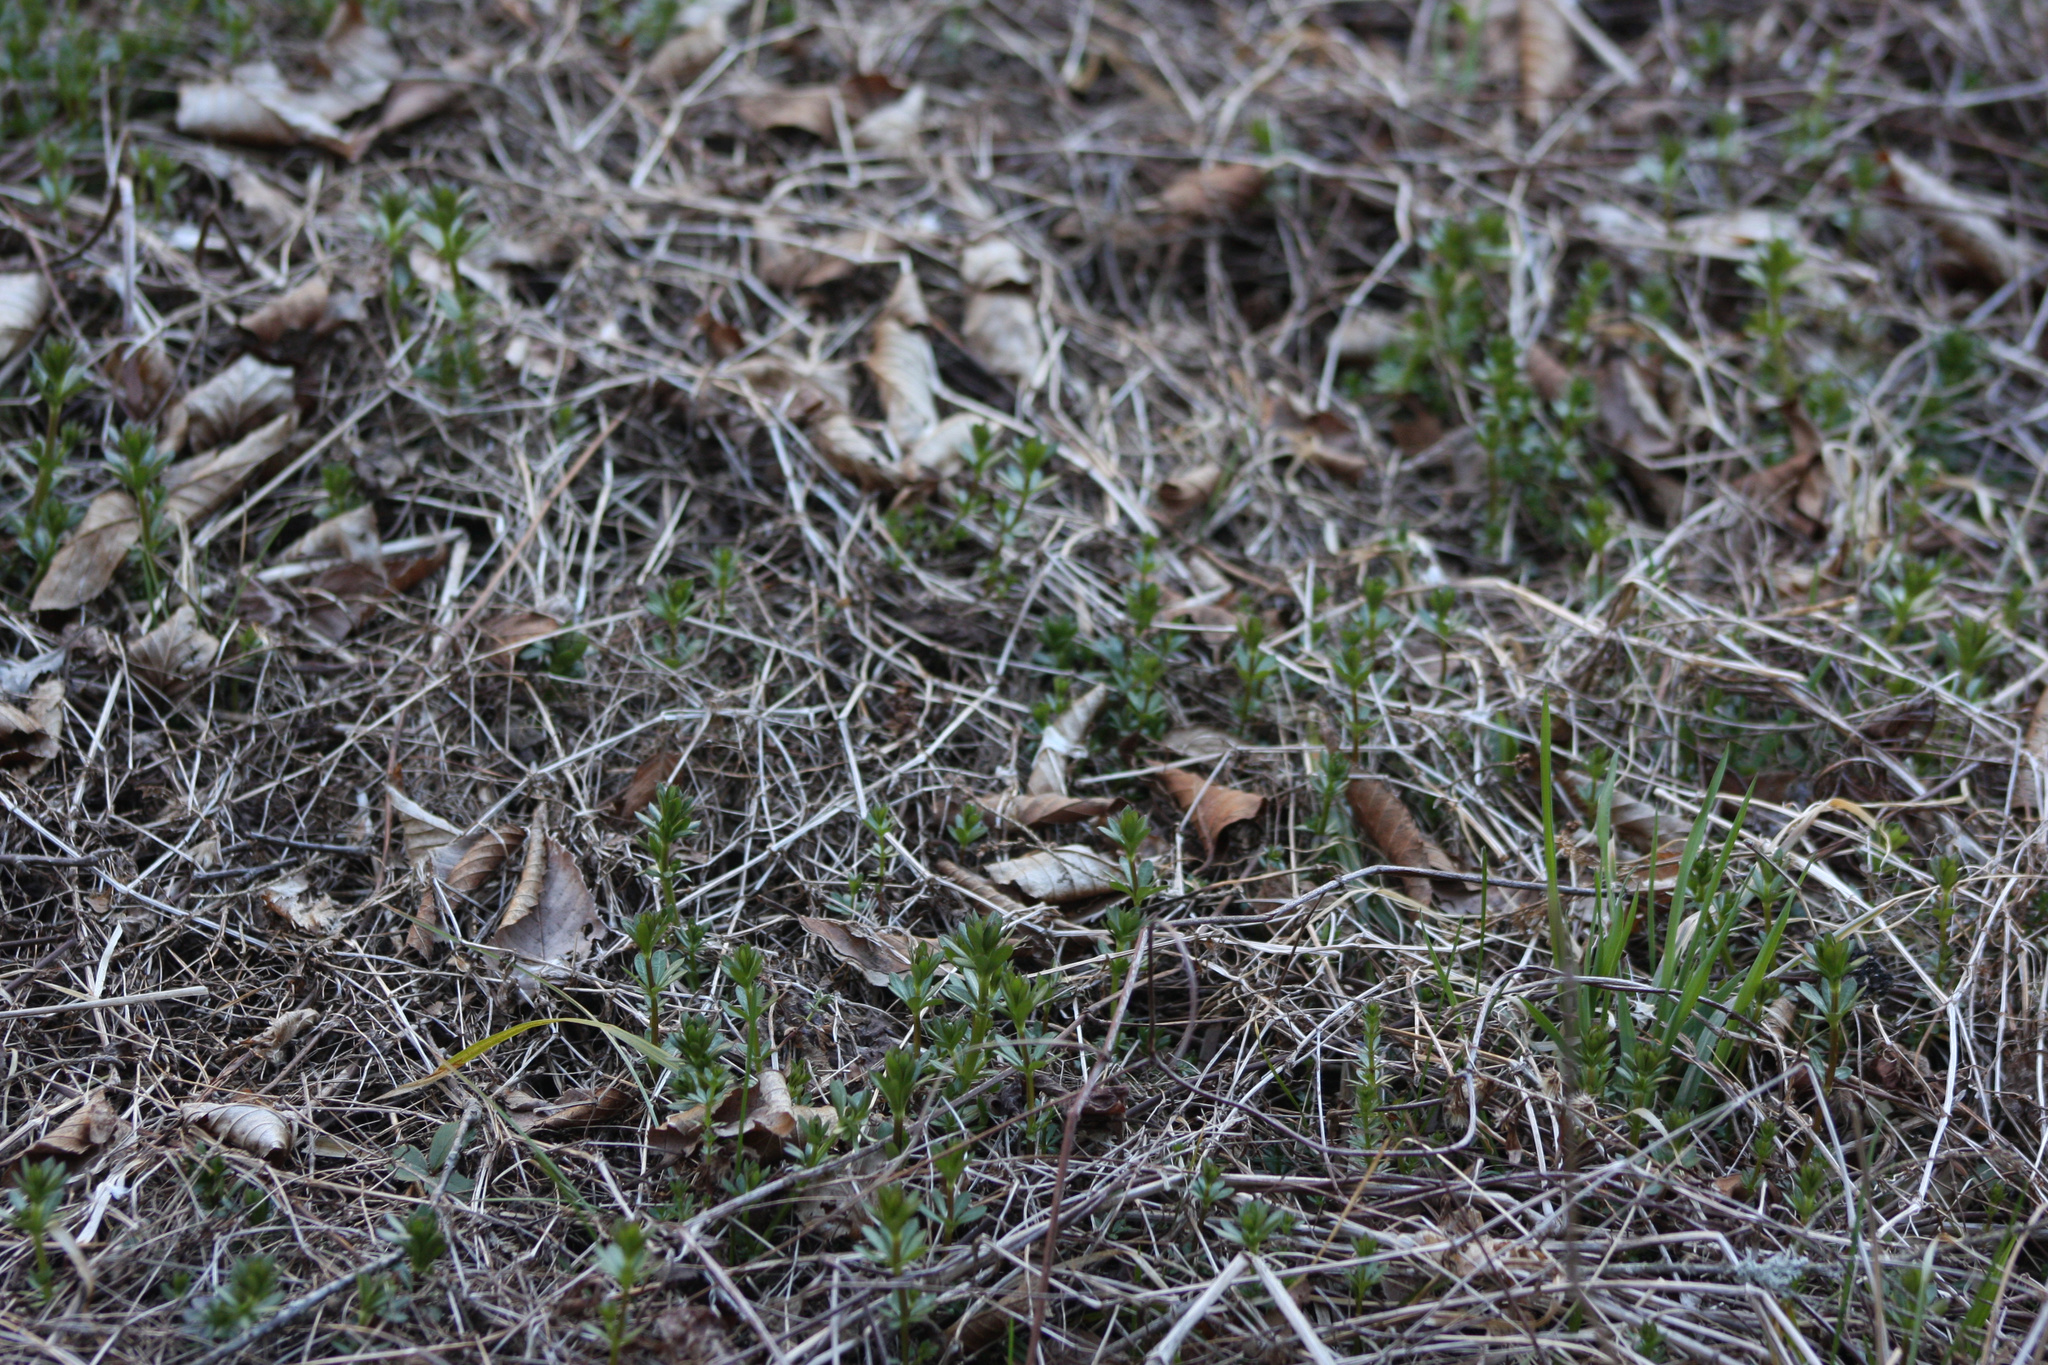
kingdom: Plantae
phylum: Tracheophyta
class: Magnoliopsida
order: Gentianales
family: Rubiaceae
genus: Galium
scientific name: Galium mollugo
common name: Hedge bedstraw
